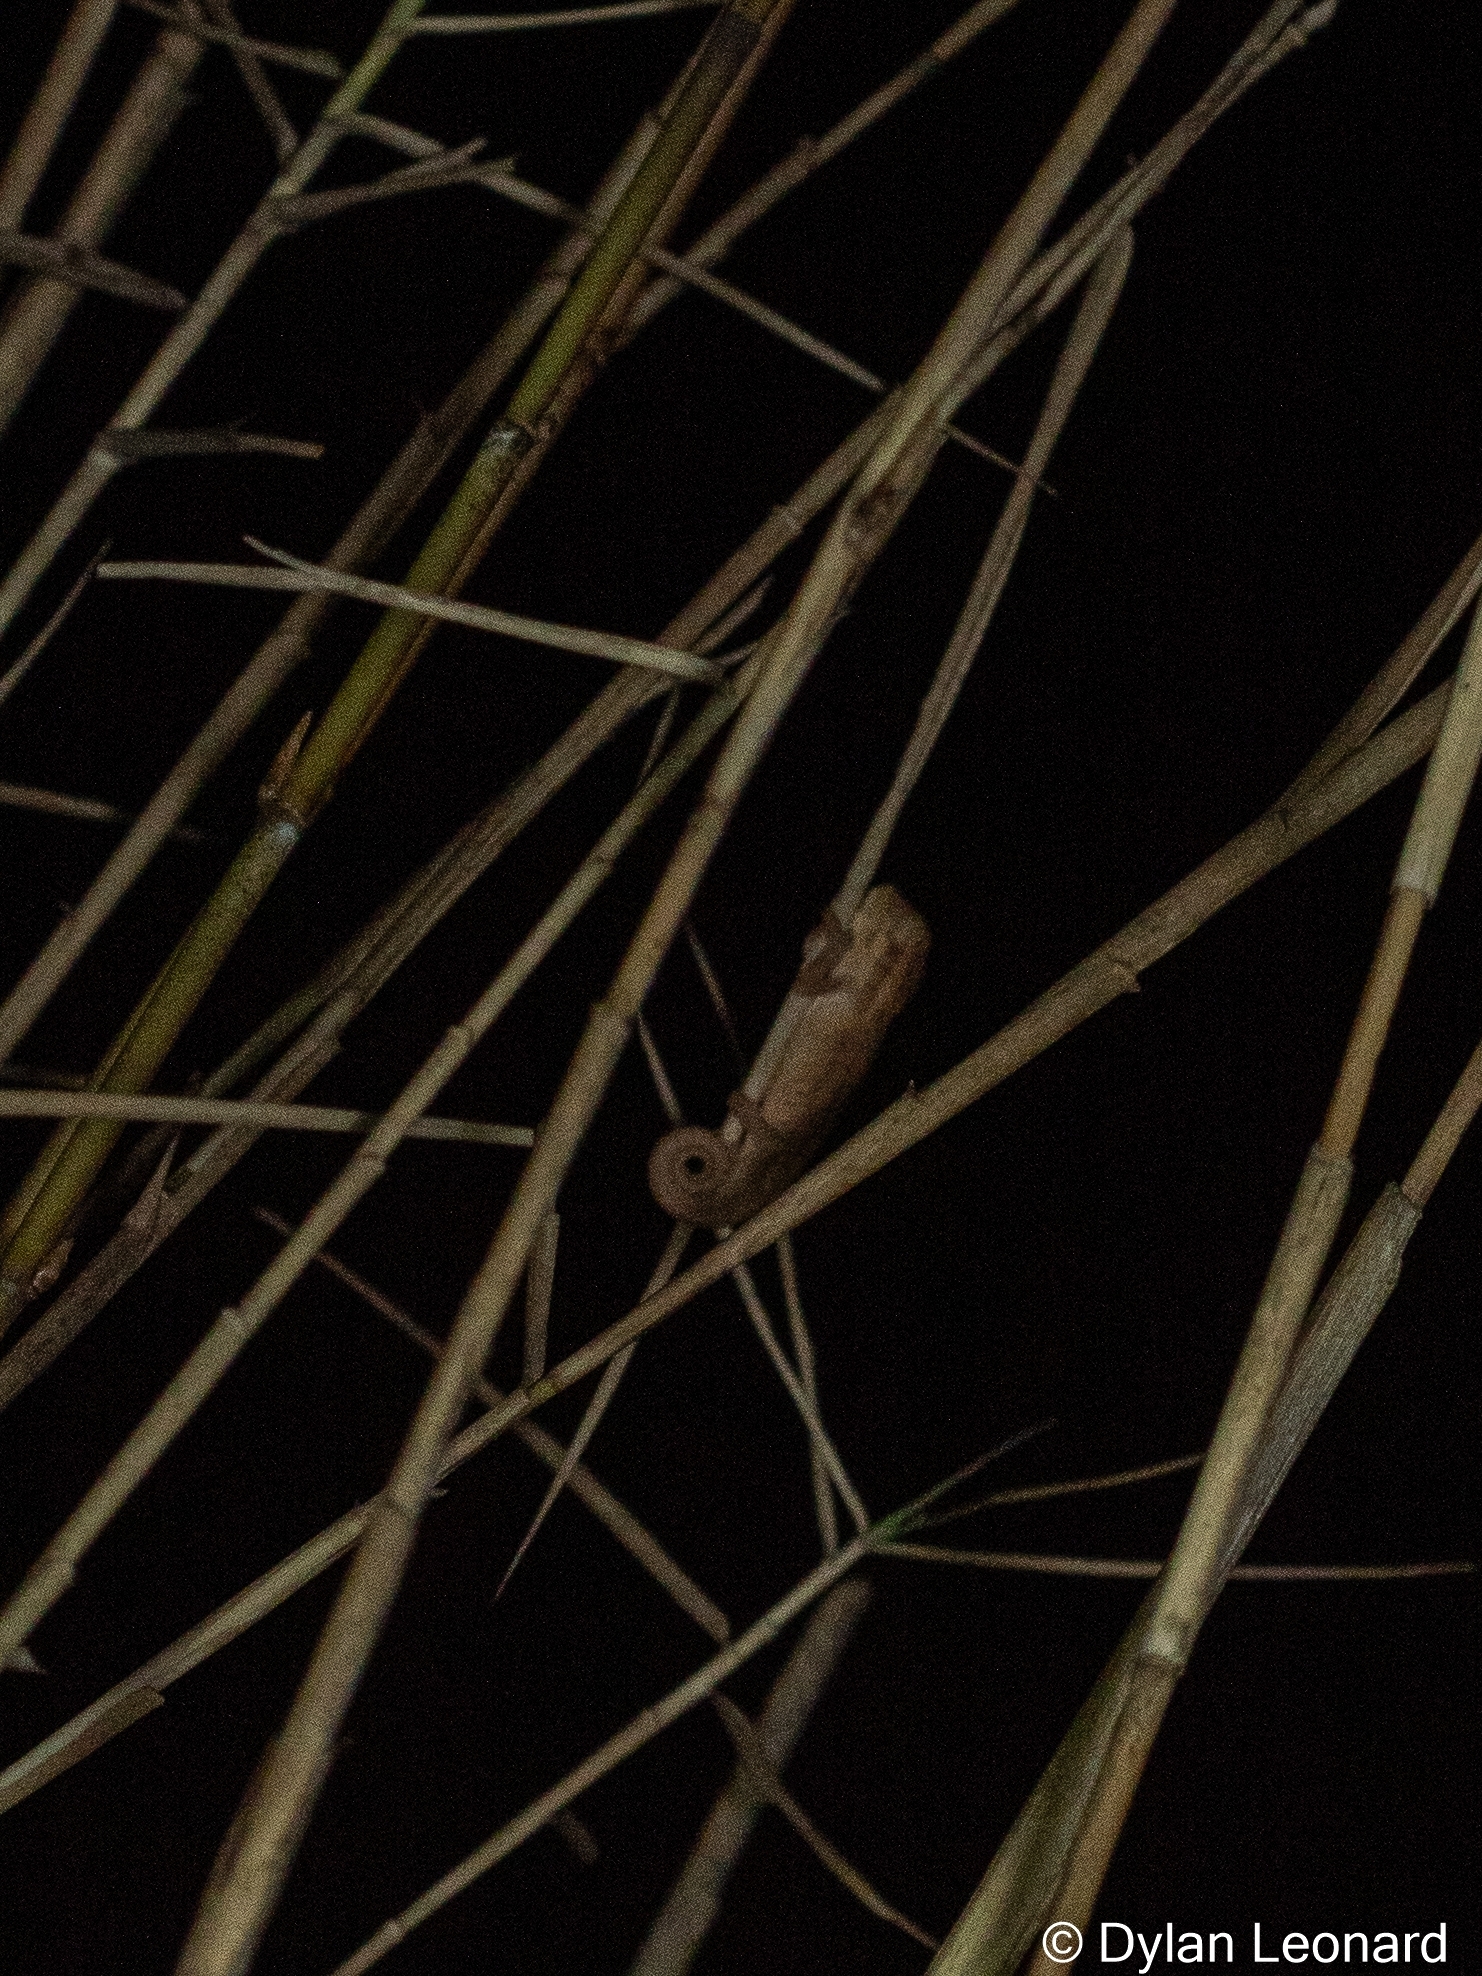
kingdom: Animalia
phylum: Chordata
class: Squamata
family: Chamaeleonidae
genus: Bradypodion
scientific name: Bradypodion melanocephalum
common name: Black-headed dwarf chameleon
